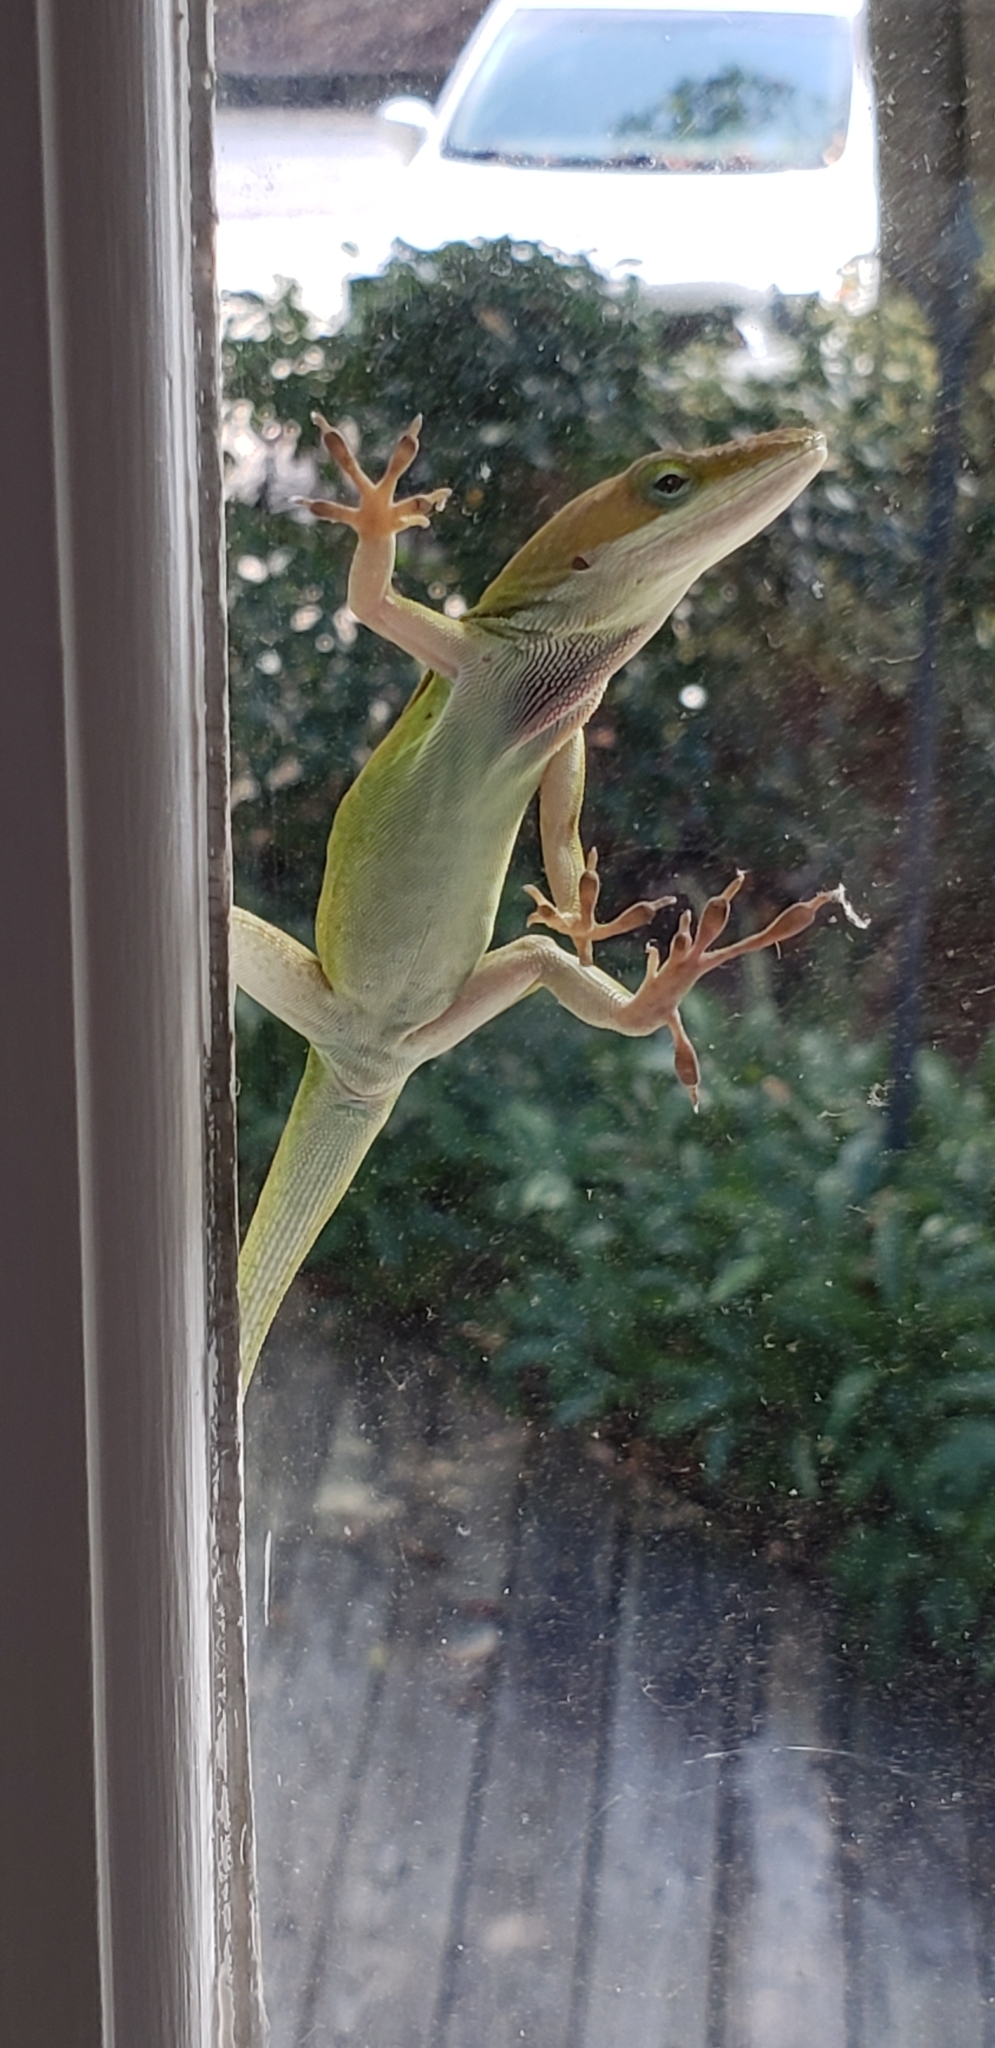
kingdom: Animalia
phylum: Chordata
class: Squamata
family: Dactyloidae
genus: Anolis
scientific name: Anolis carolinensis
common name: Green anole
